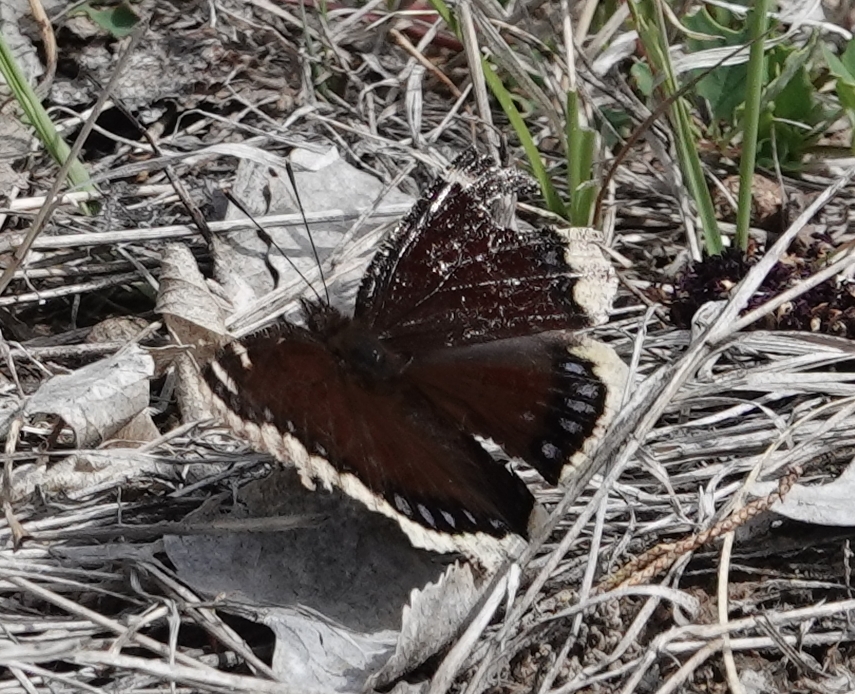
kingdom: Animalia
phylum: Arthropoda
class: Insecta
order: Lepidoptera
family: Nymphalidae
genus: Nymphalis
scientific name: Nymphalis antiopa
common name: Camberwell beauty
